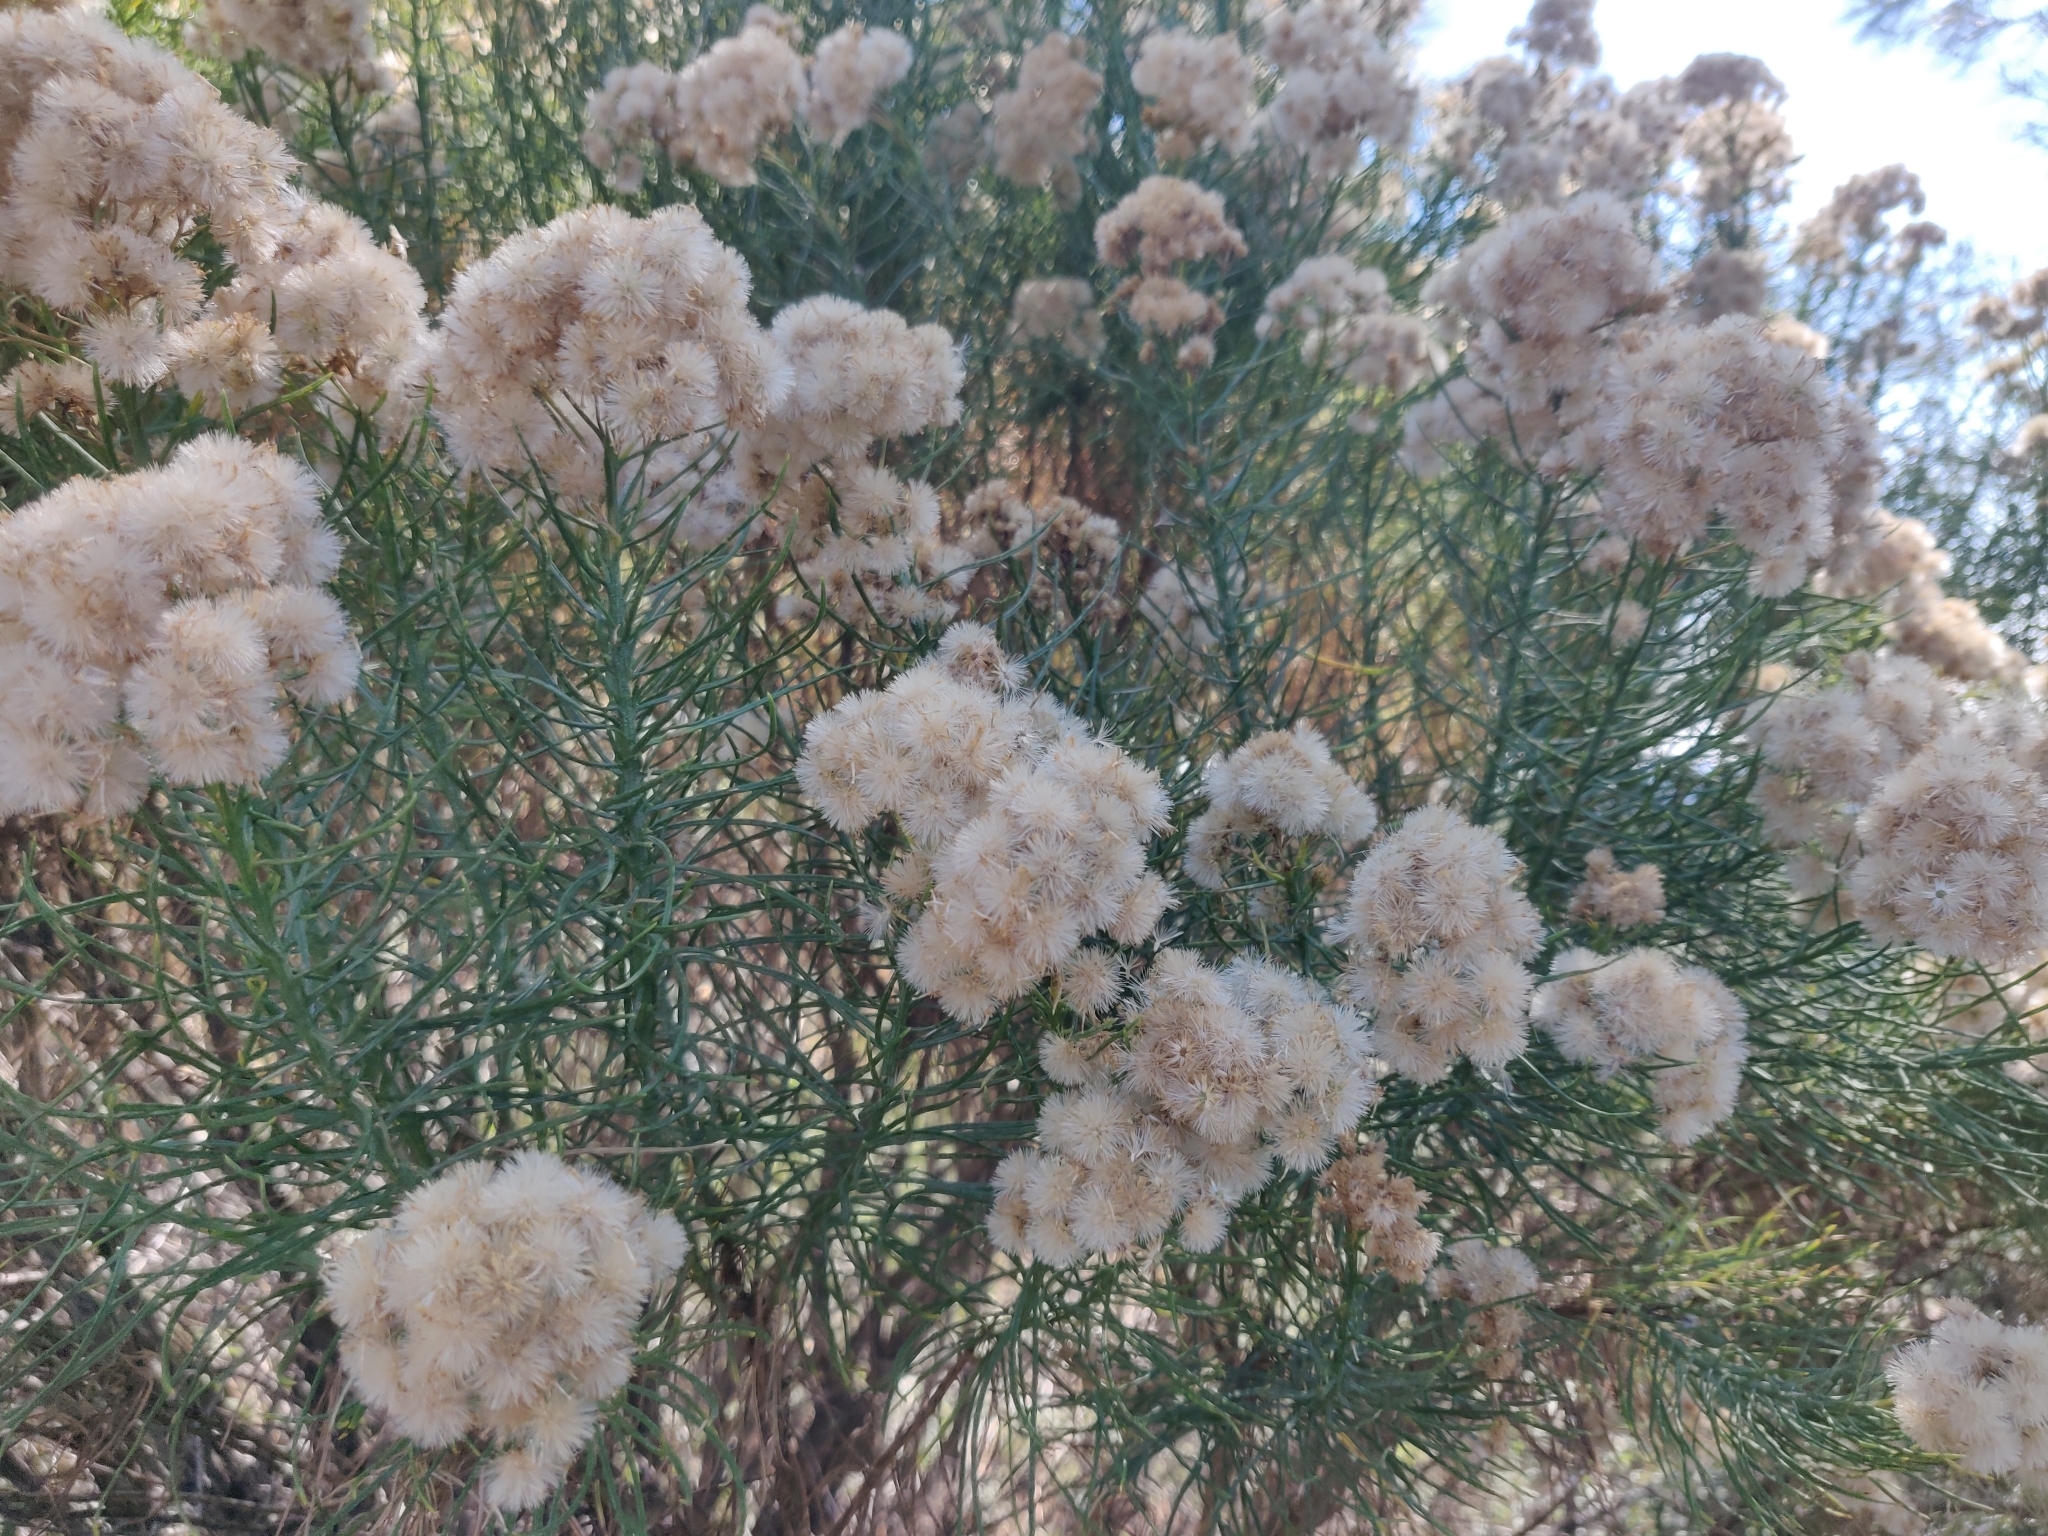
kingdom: Plantae
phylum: Tracheophyta
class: Magnoliopsida
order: Asterales
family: Asteraceae
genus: Ericameria
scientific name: Ericameria arborescens
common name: Goldenfleece
